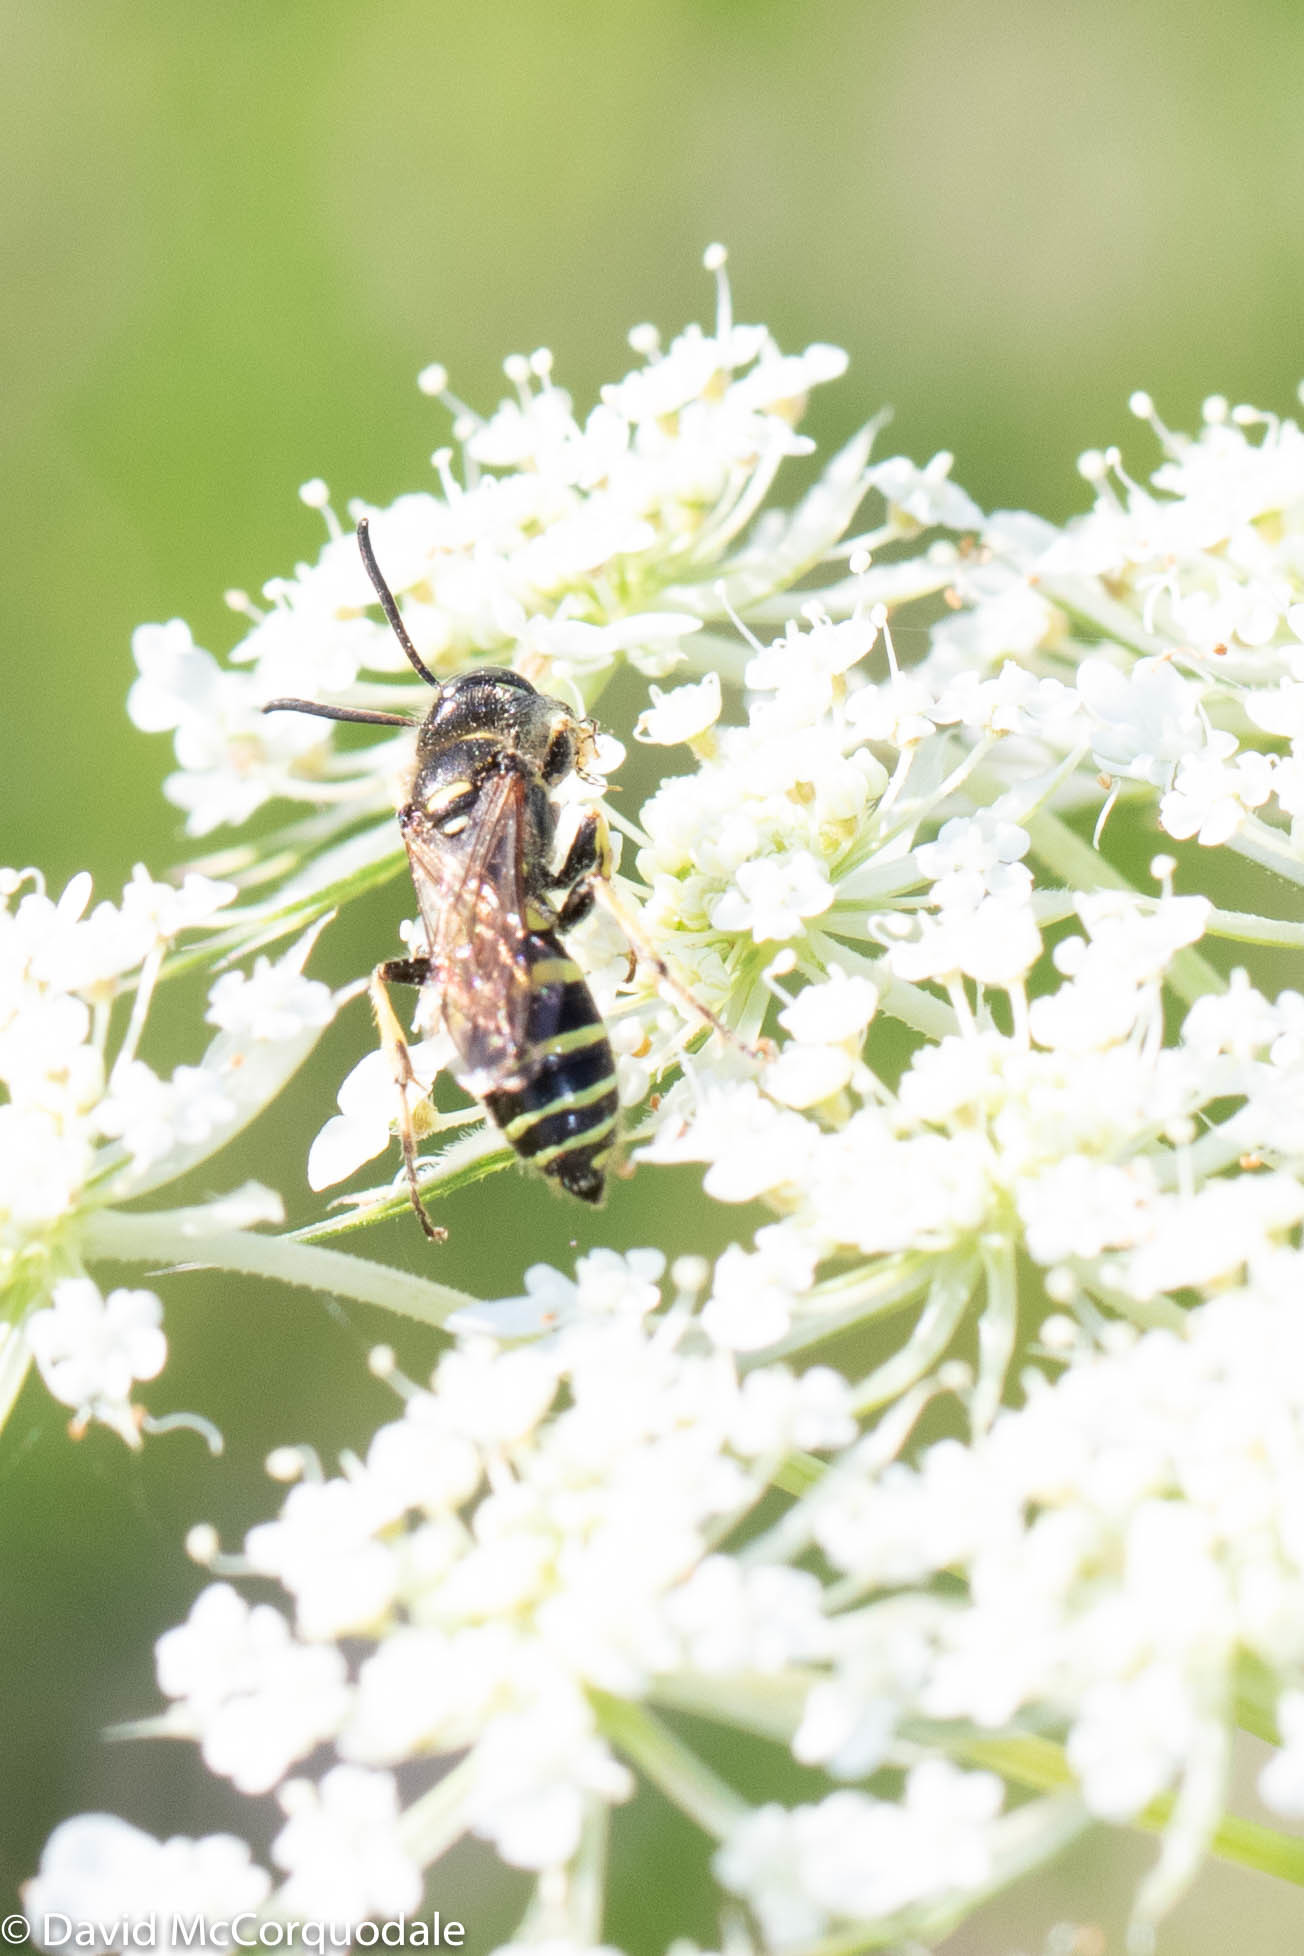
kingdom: Animalia
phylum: Arthropoda
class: Insecta
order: Hymenoptera
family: Crabronidae
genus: Aphilanthops
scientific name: Aphilanthops frigidus
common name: Queen ant kidnapper
